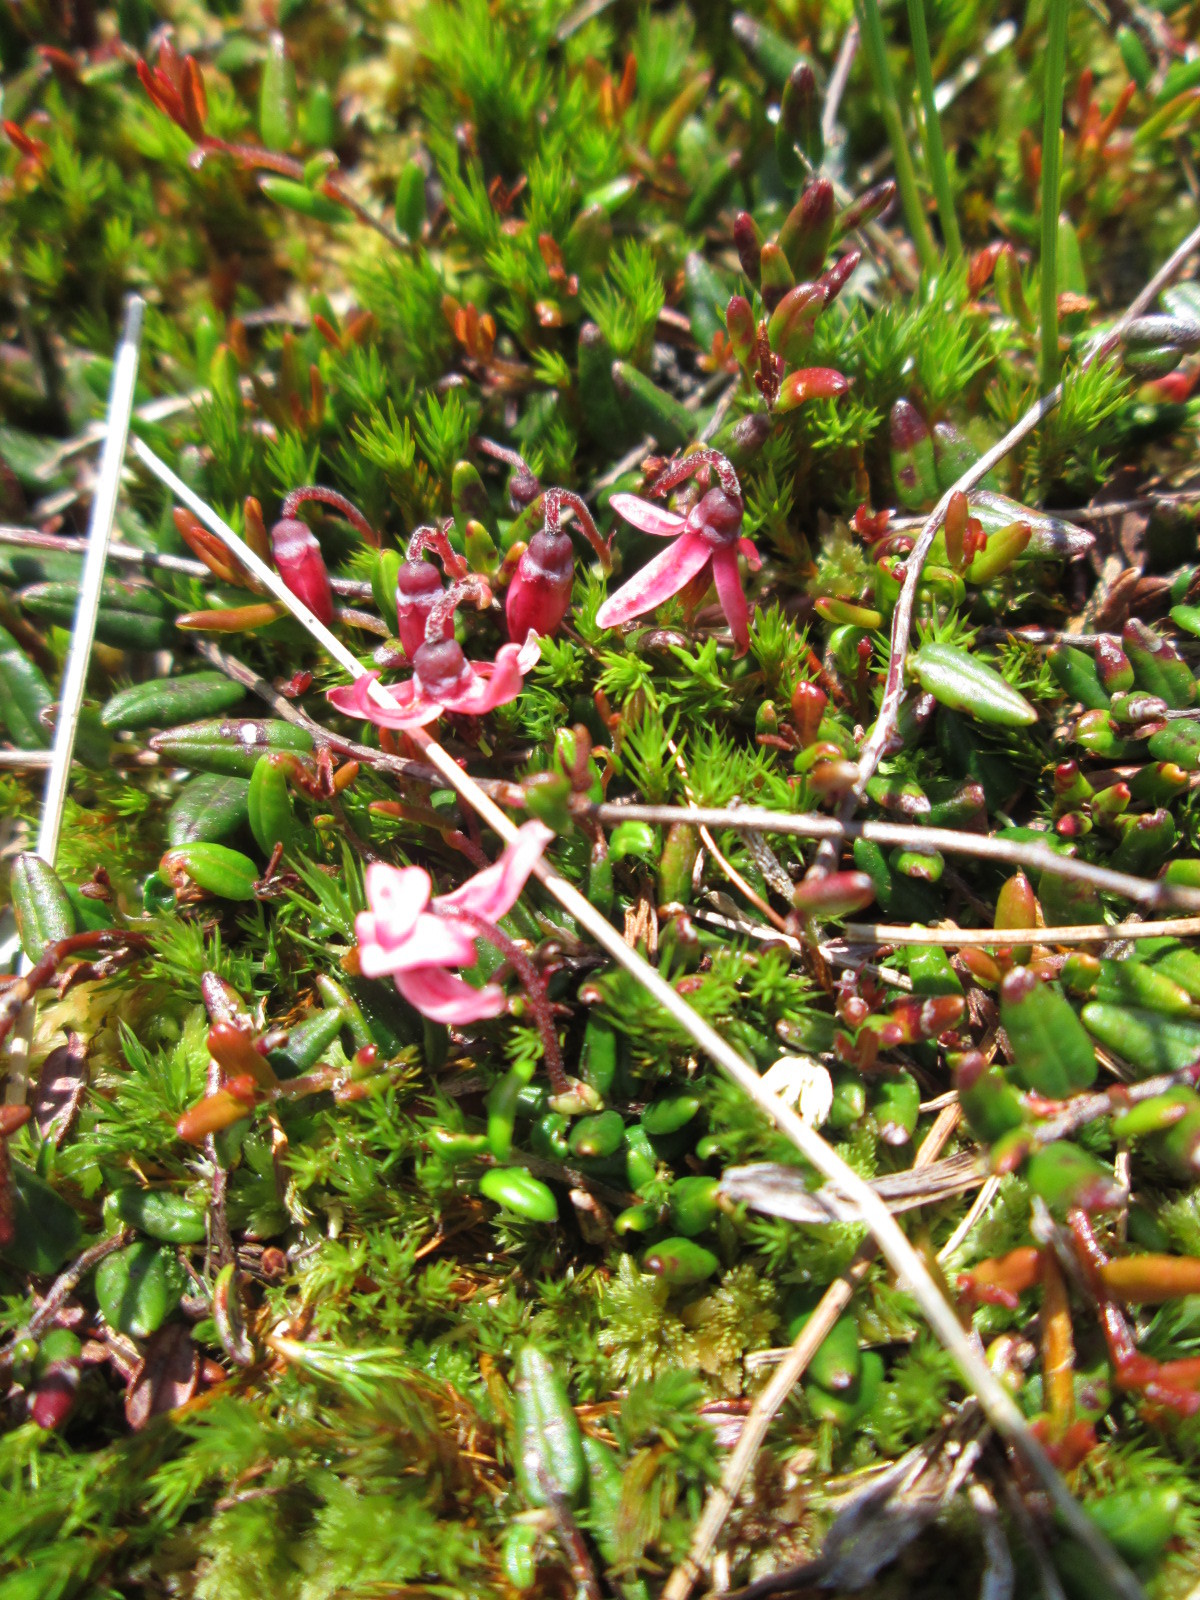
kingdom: Plantae
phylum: Tracheophyta
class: Magnoliopsida
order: Ericales
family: Ericaceae
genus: Vaccinium
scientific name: Vaccinium oxycoccos
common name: Cranberry
